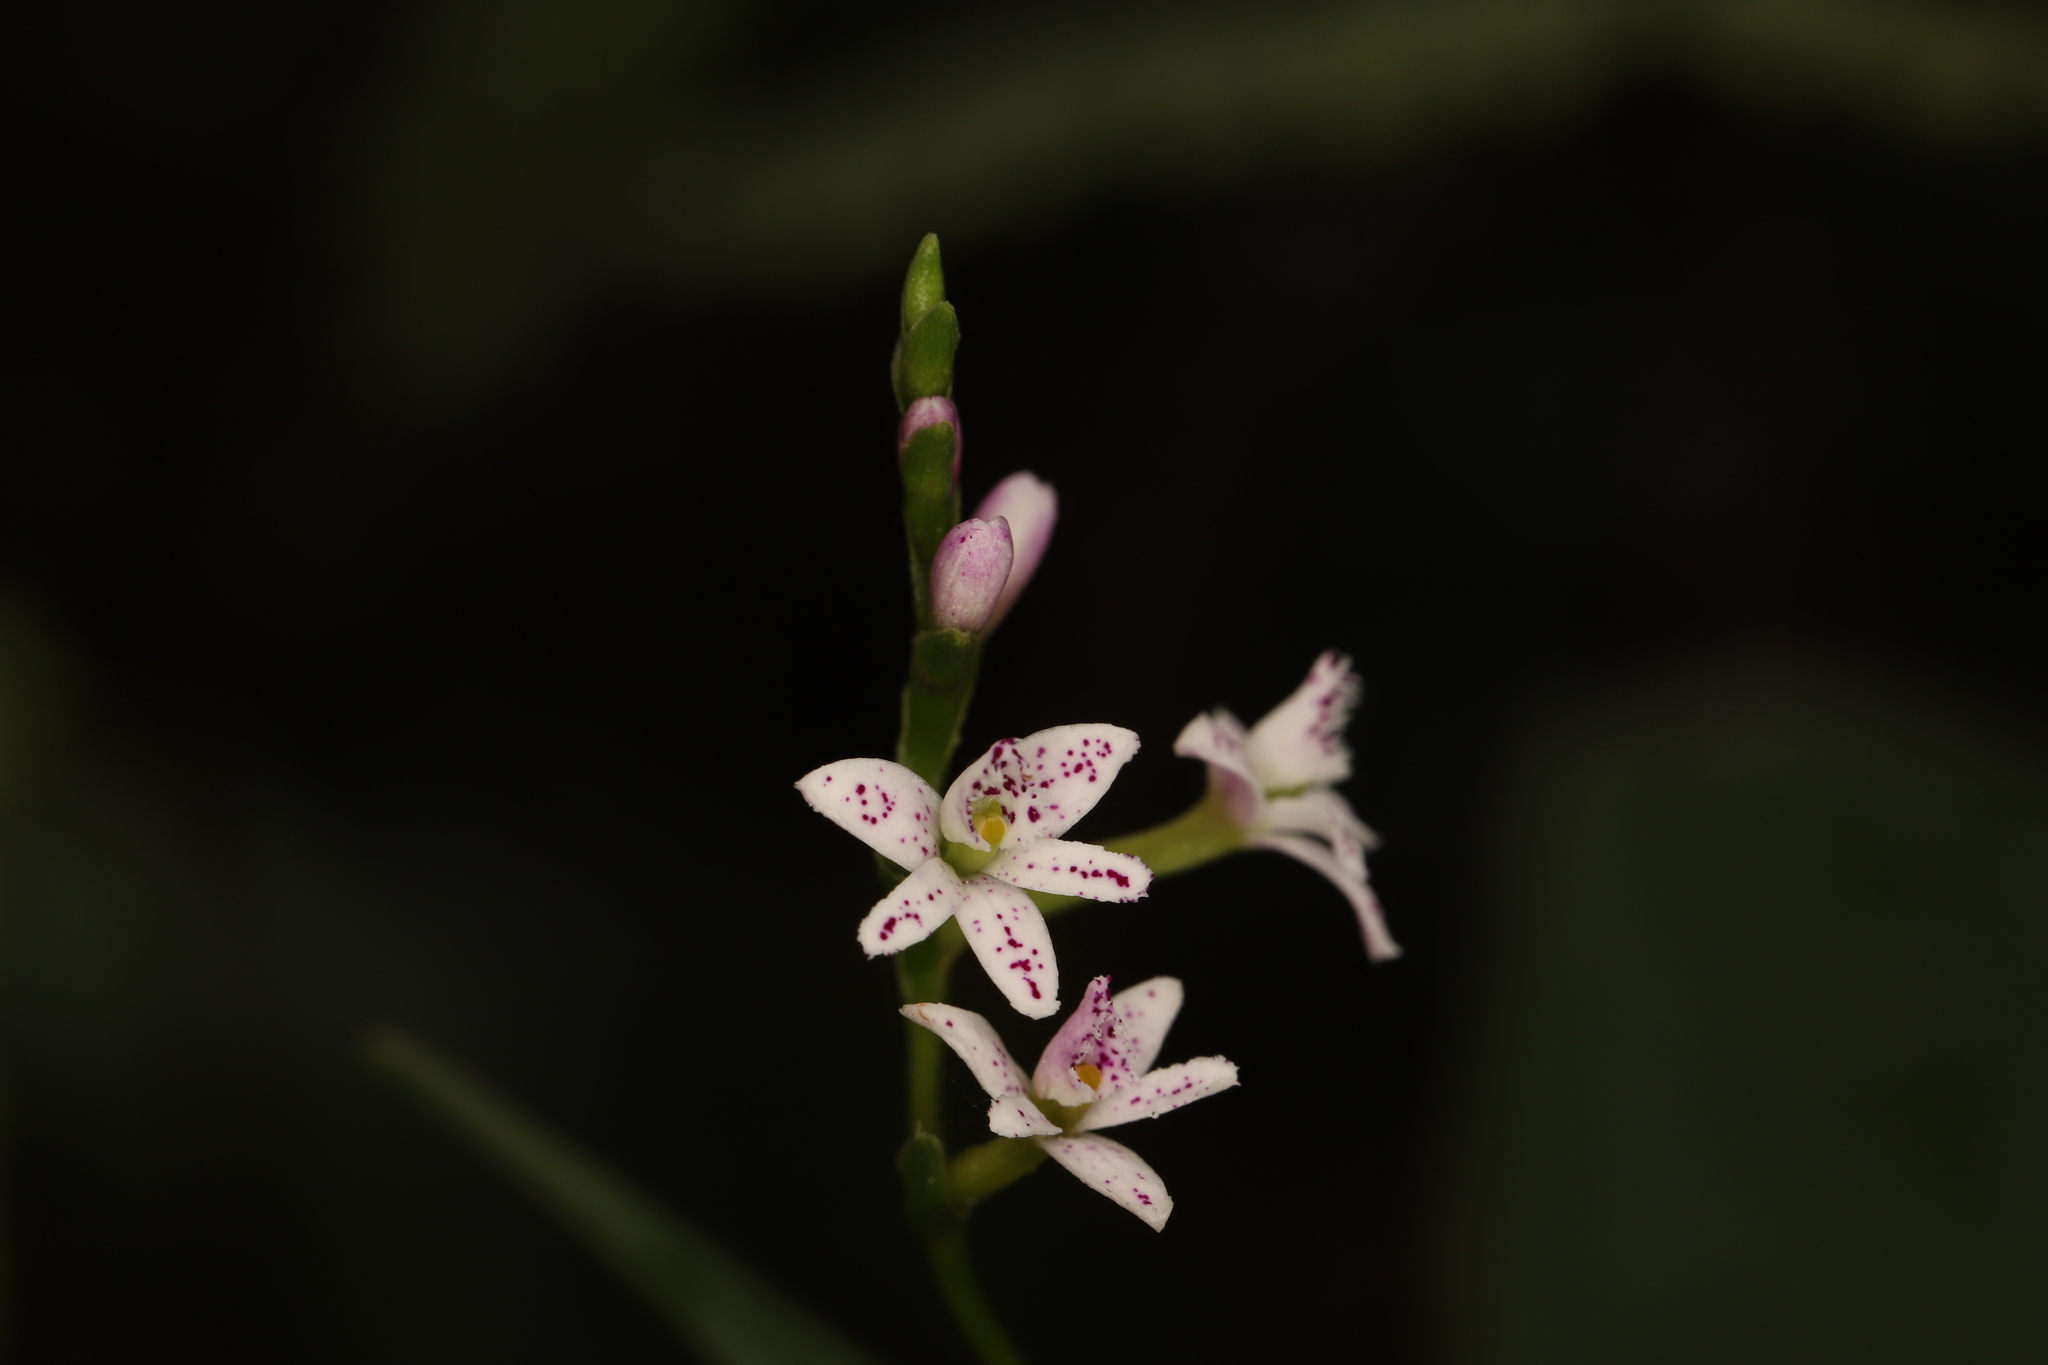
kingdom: Plantae
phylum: Tracheophyta
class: Liliopsida
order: Asparagales
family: Orchidaceae
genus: Epidendrum
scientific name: Epidendrum fimbriatum
